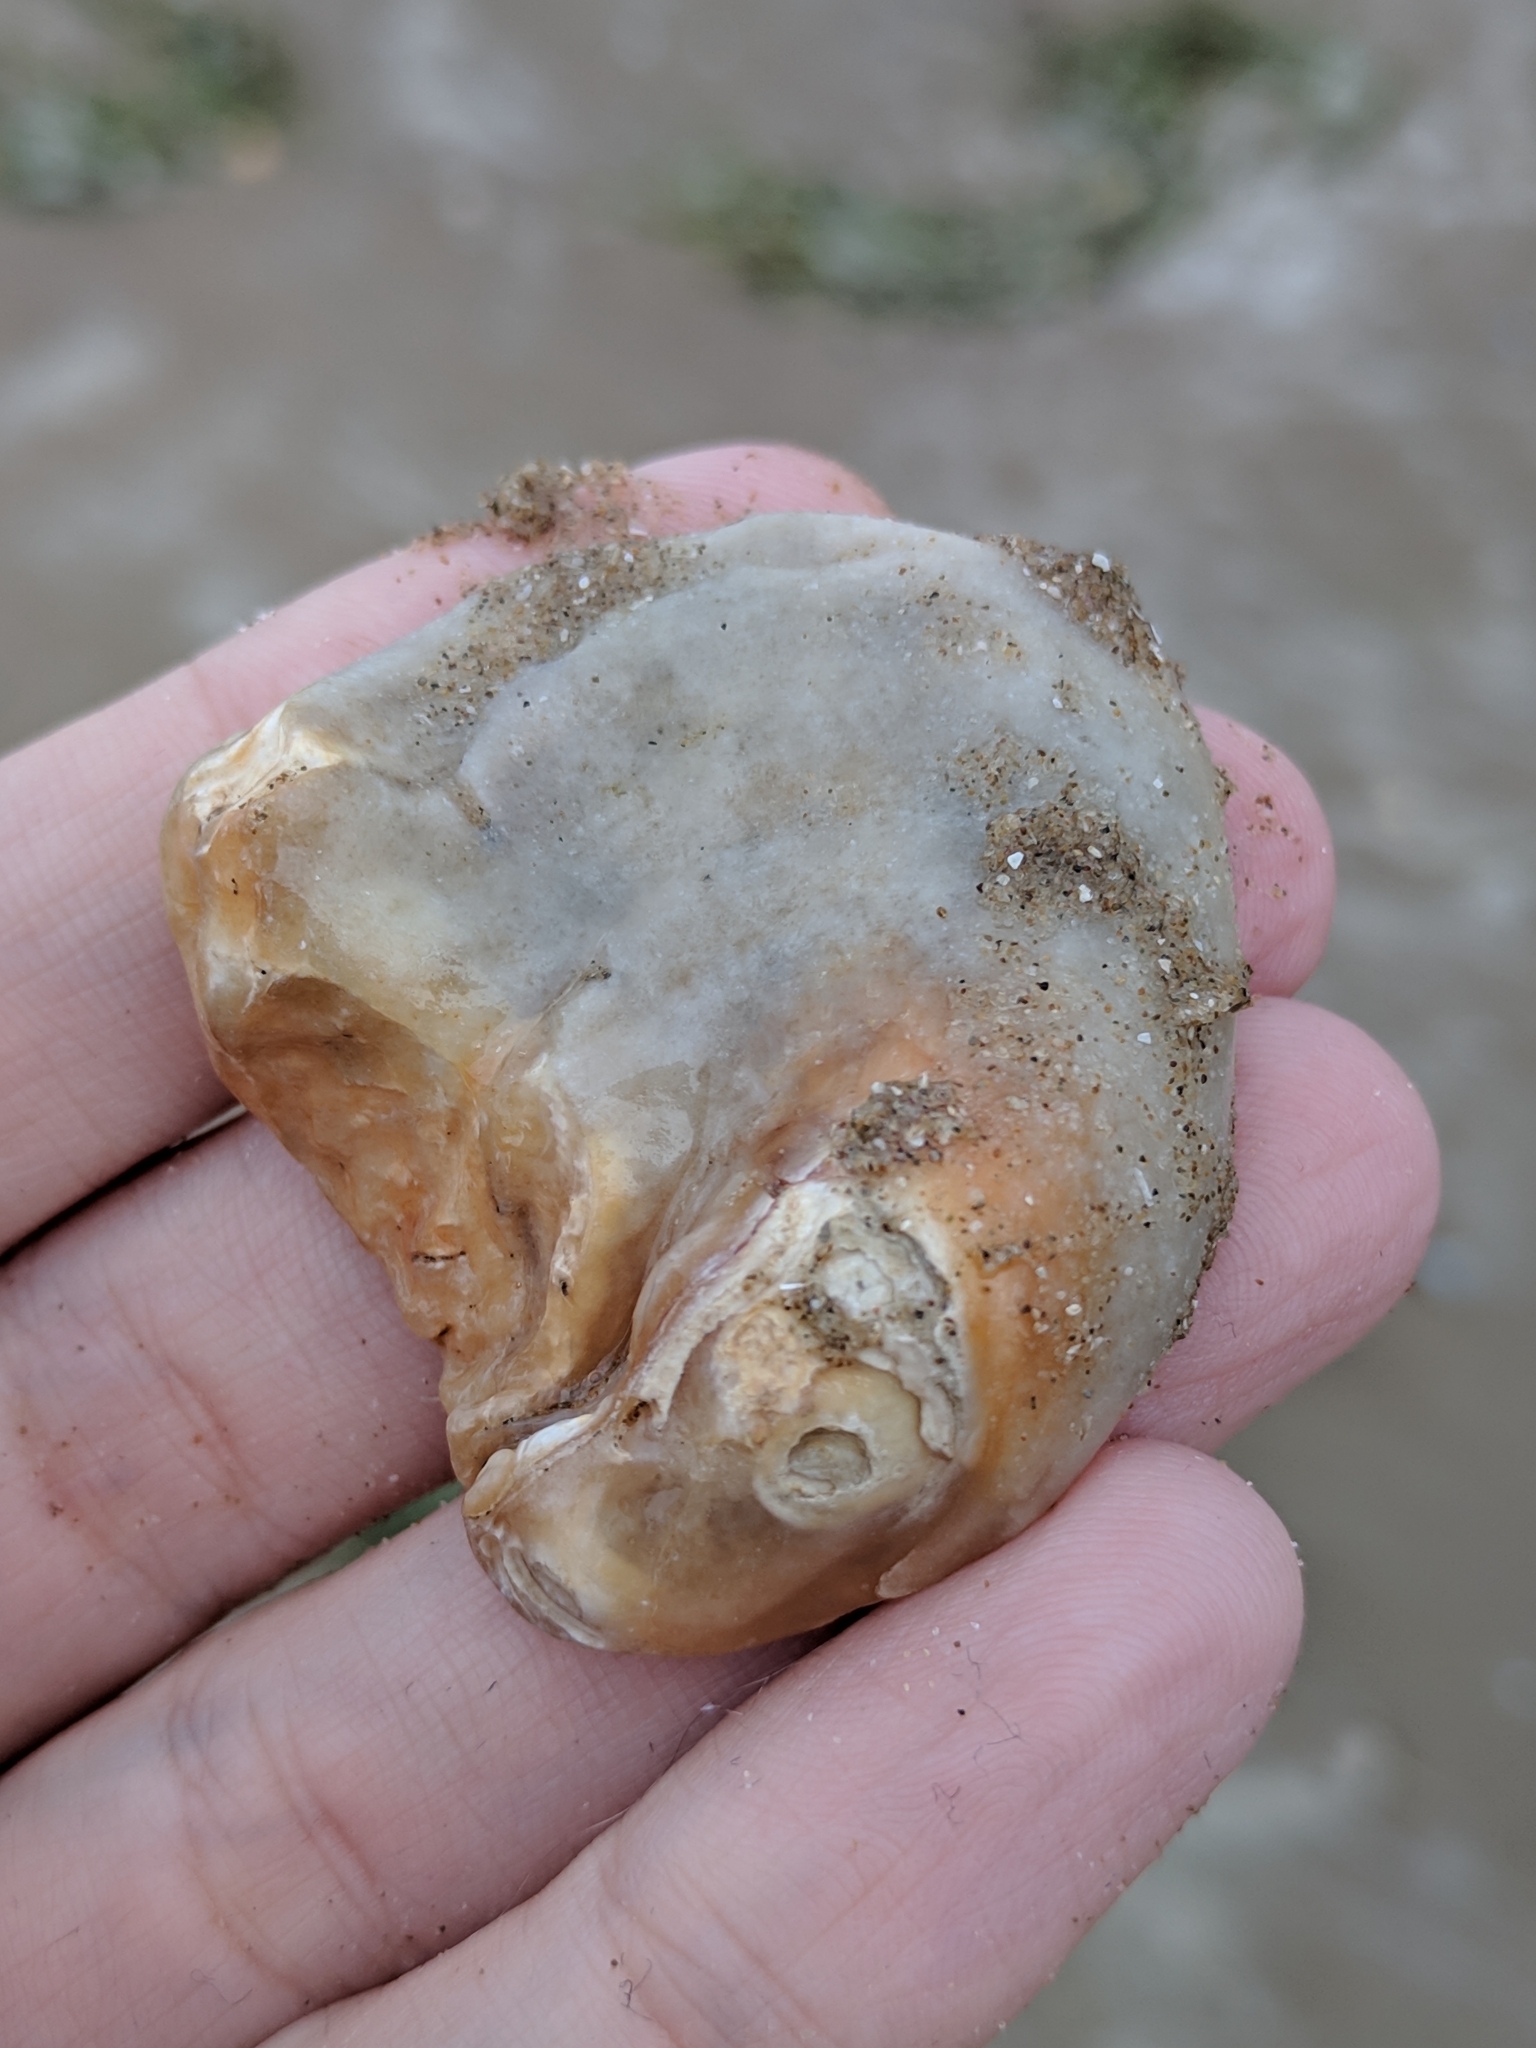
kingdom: Animalia
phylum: Mollusca
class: Bivalvia
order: Ostreida
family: Ostreidae
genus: Crassostrea
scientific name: Crassostrea virginica
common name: American oyster
